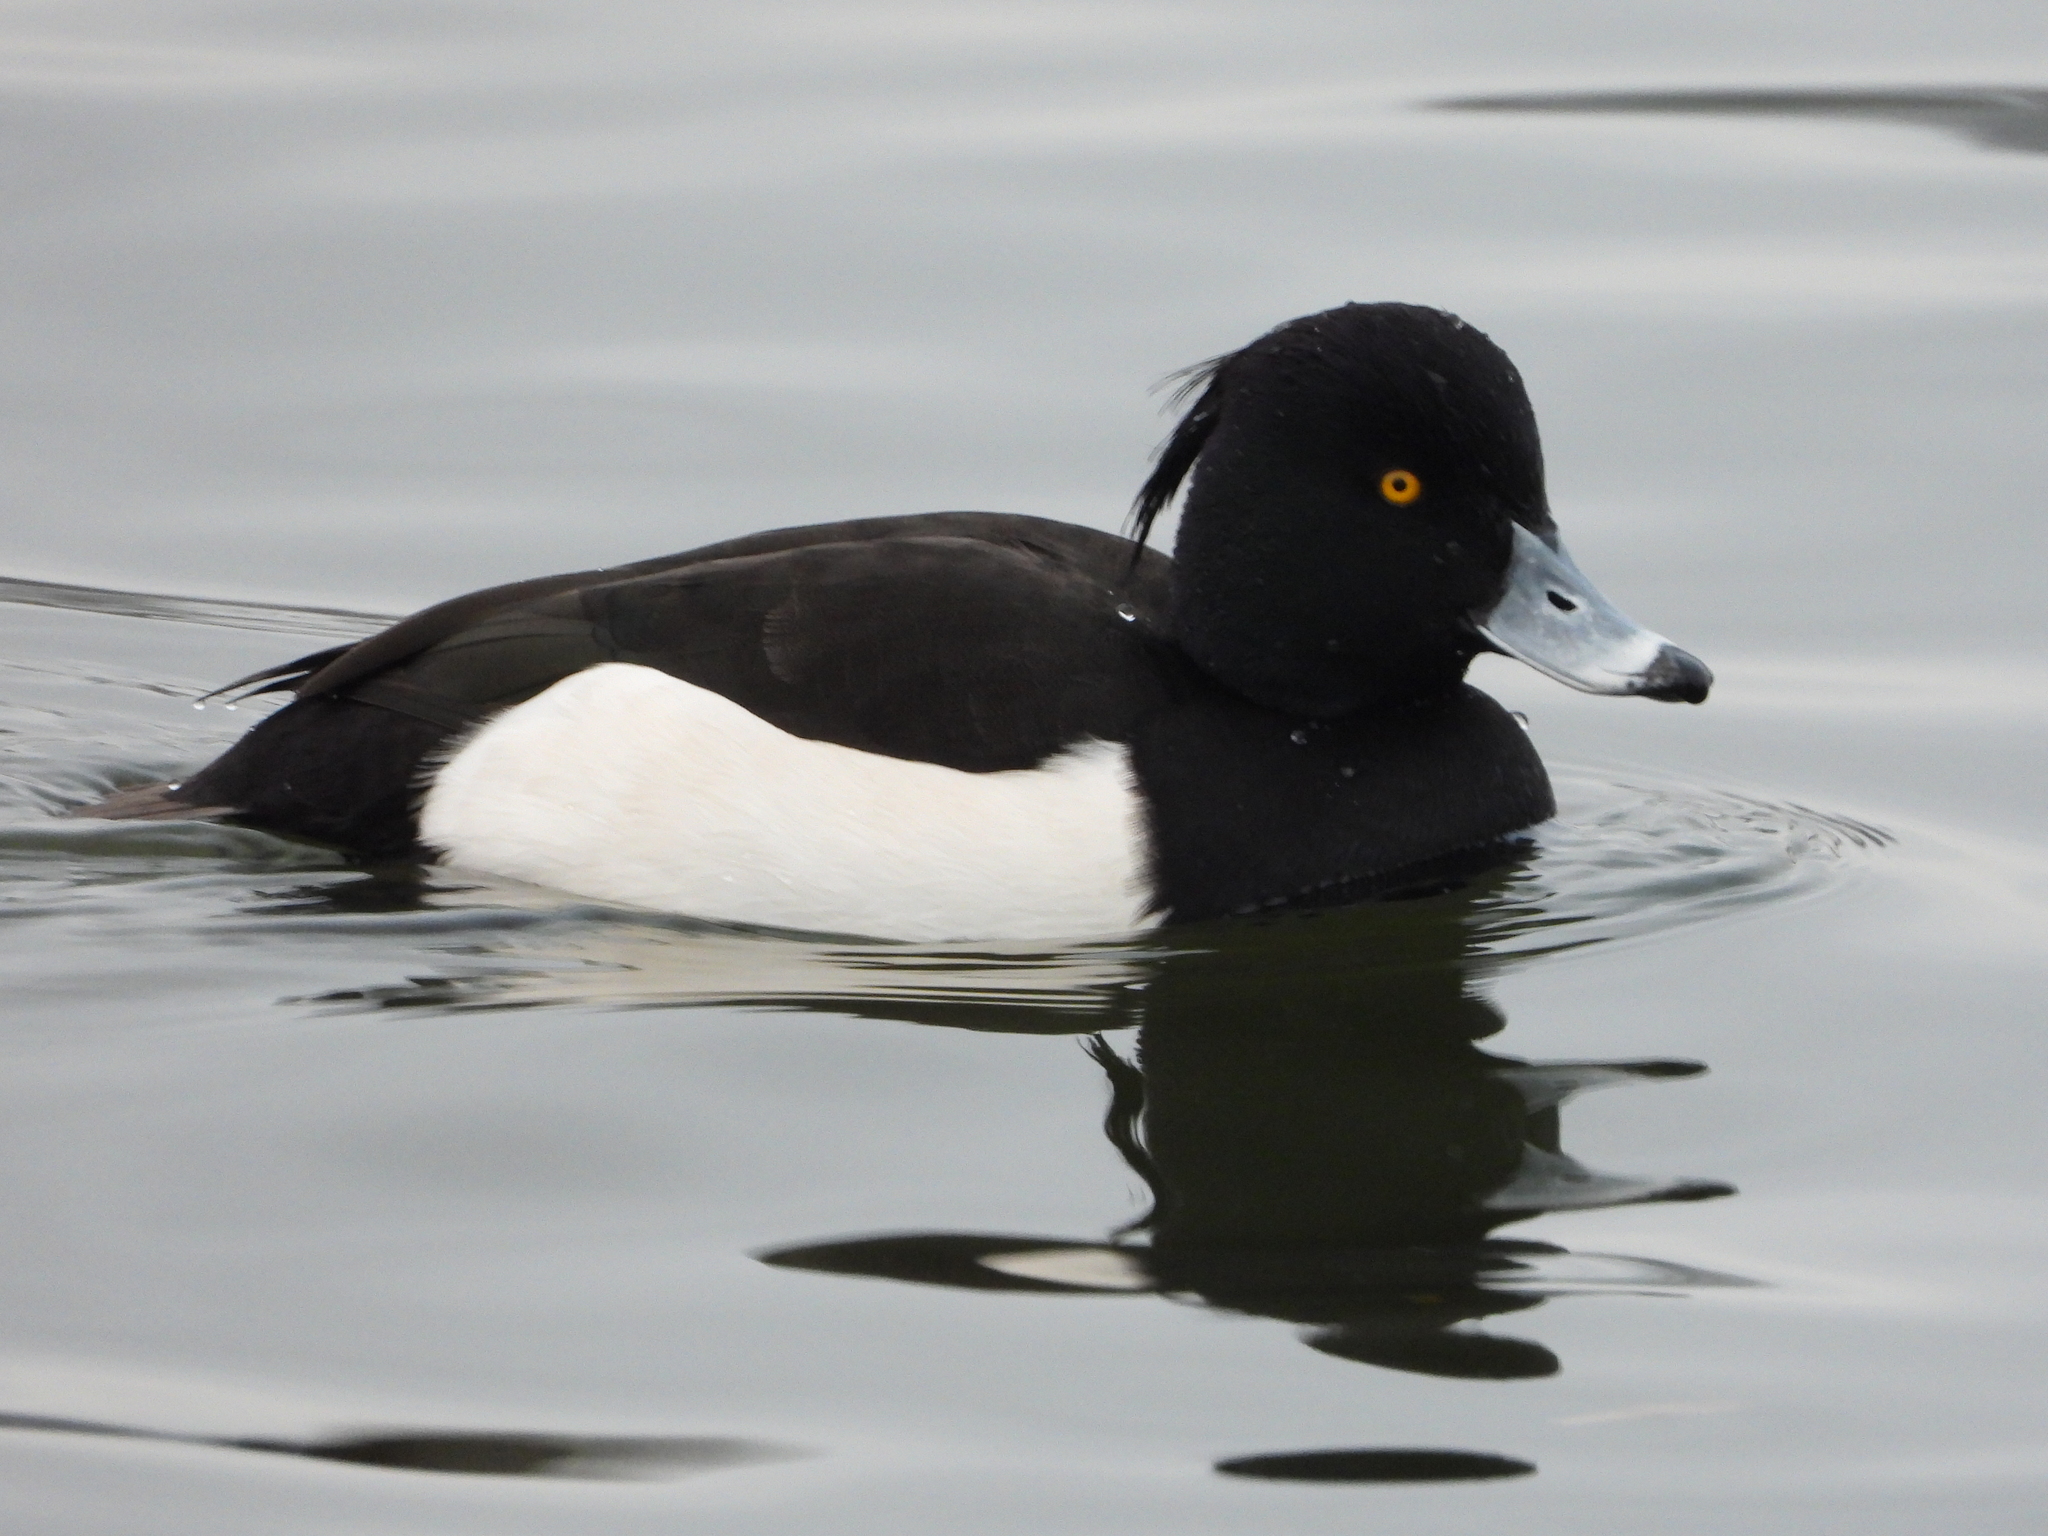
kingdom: Animalia
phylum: Chordata
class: Aves
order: Anseriformes
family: Anatidae
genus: Aythya
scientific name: Aythya fuligula
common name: Tufted duck
